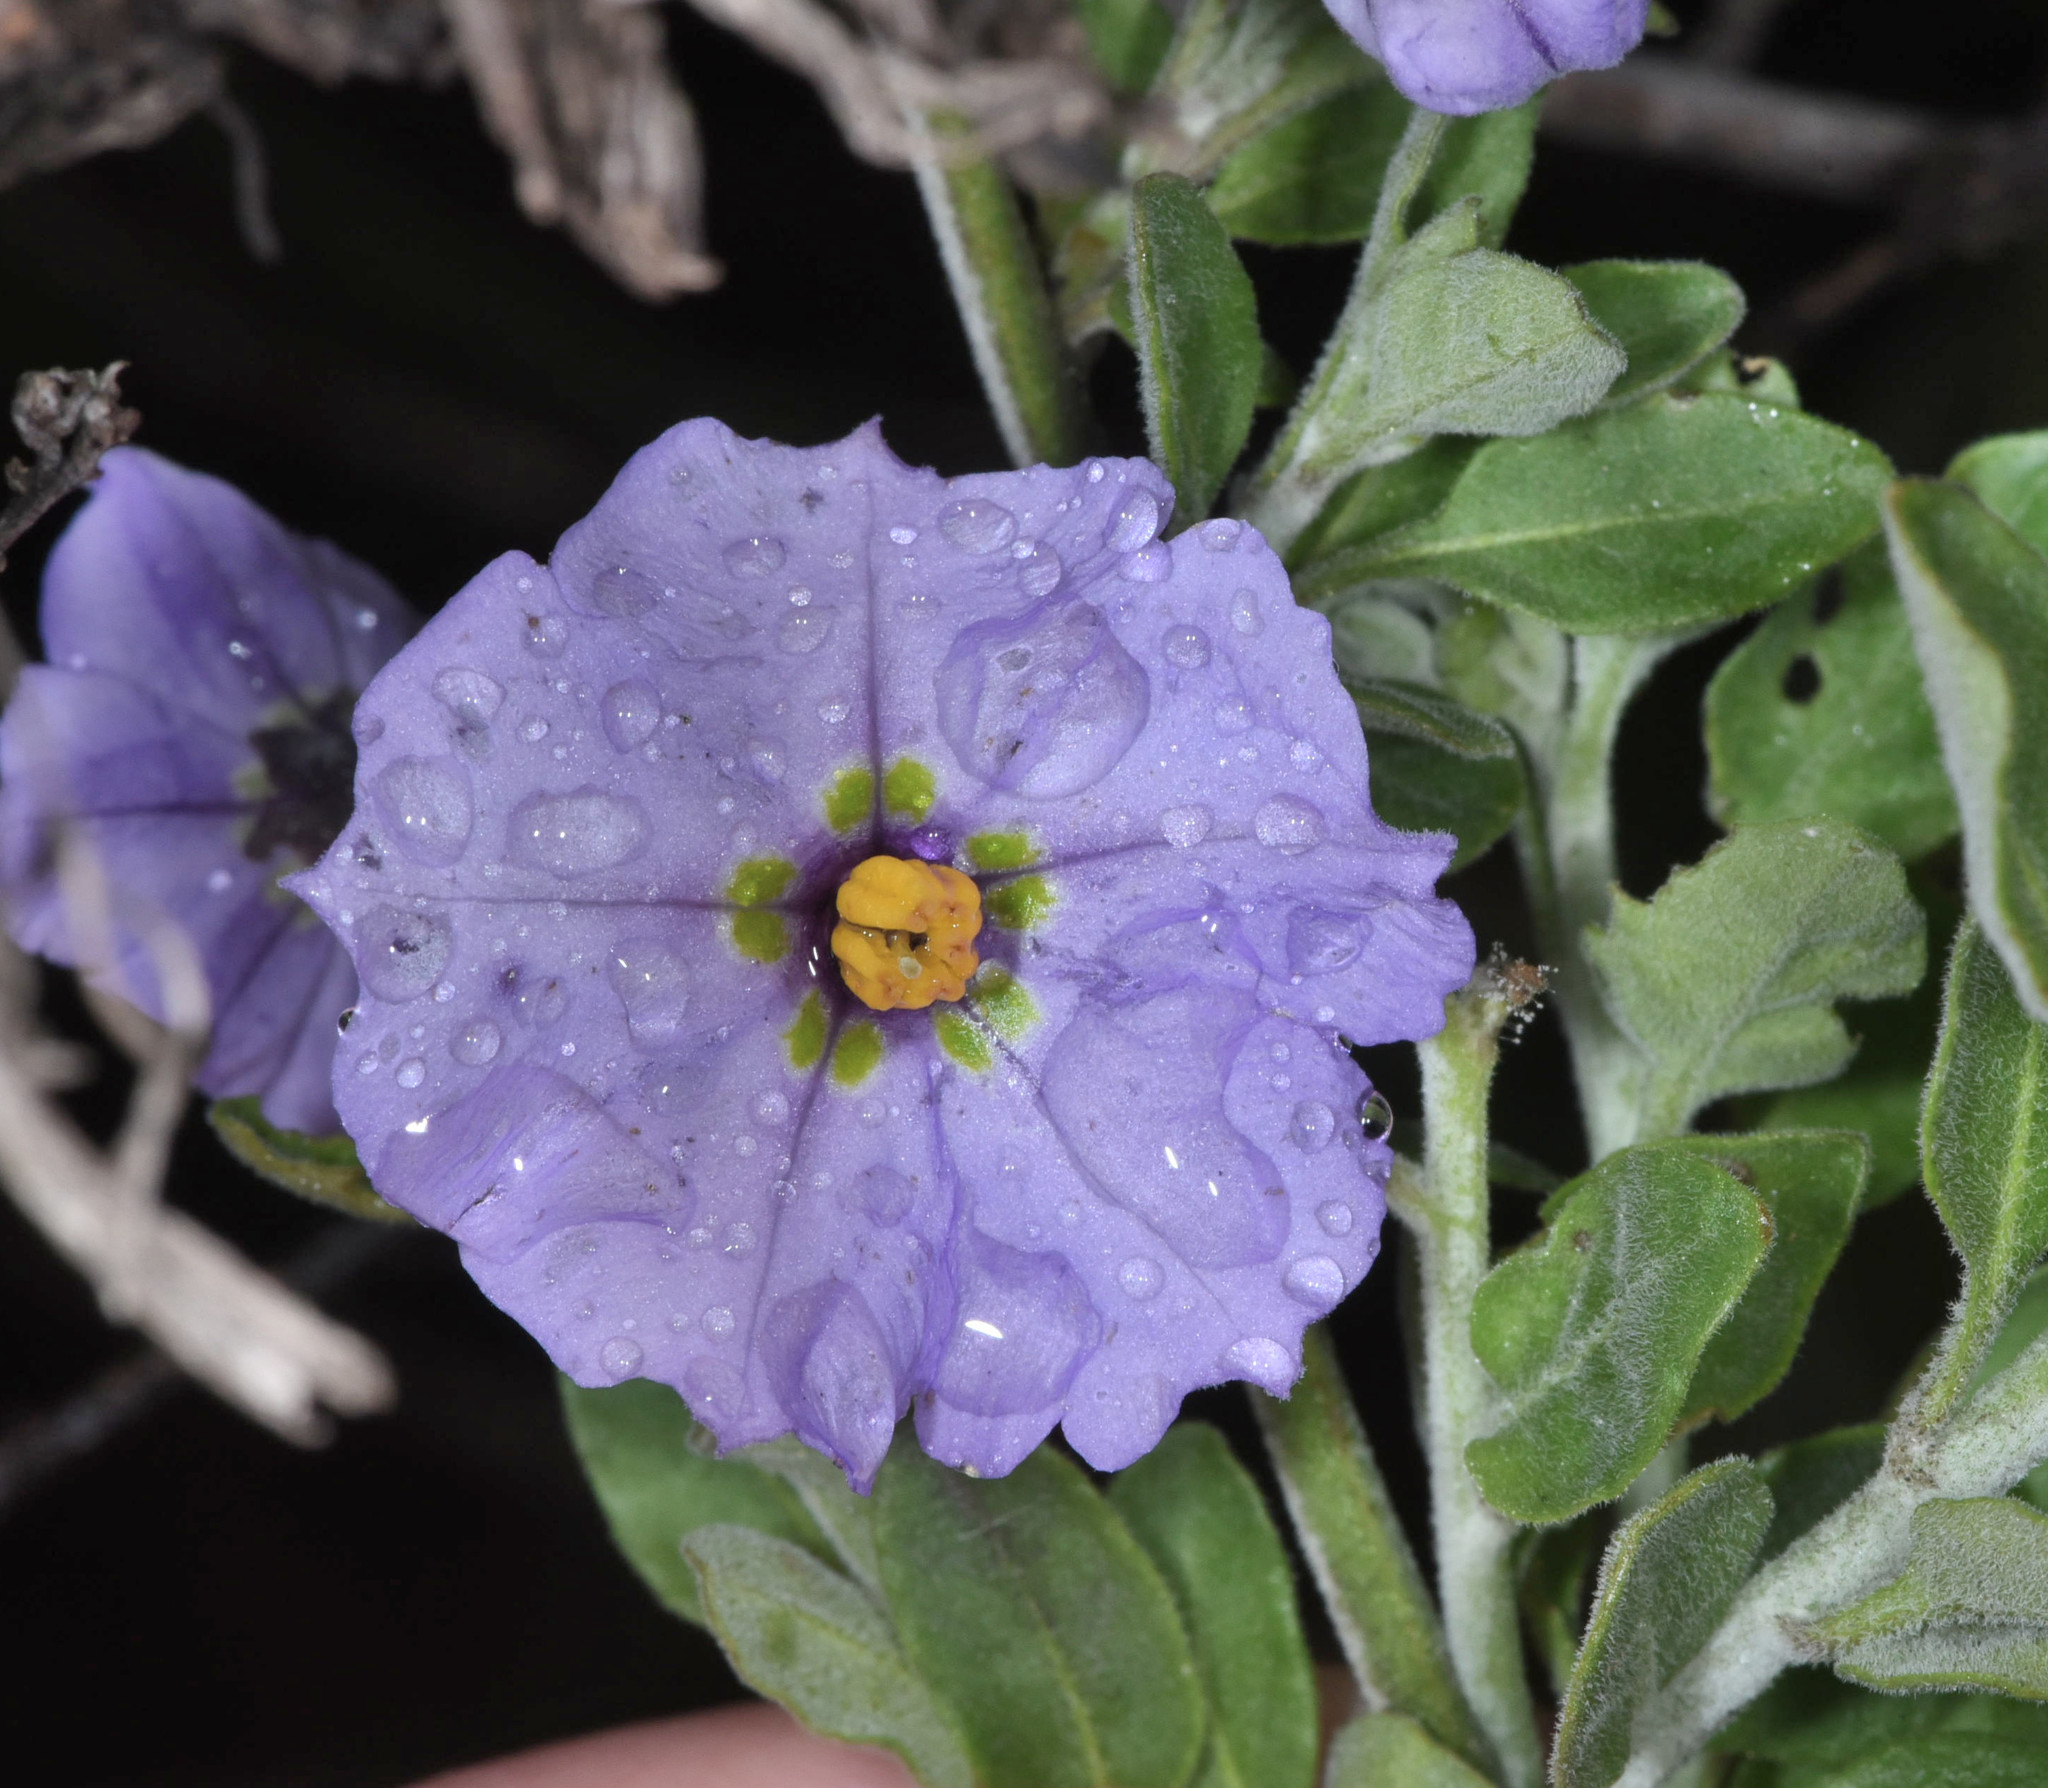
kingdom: Plantae
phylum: Tracheophyta
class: Magnoliopsida
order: Solanales
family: Solanaceae
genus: Solanum
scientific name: Solanum umbelliferum
